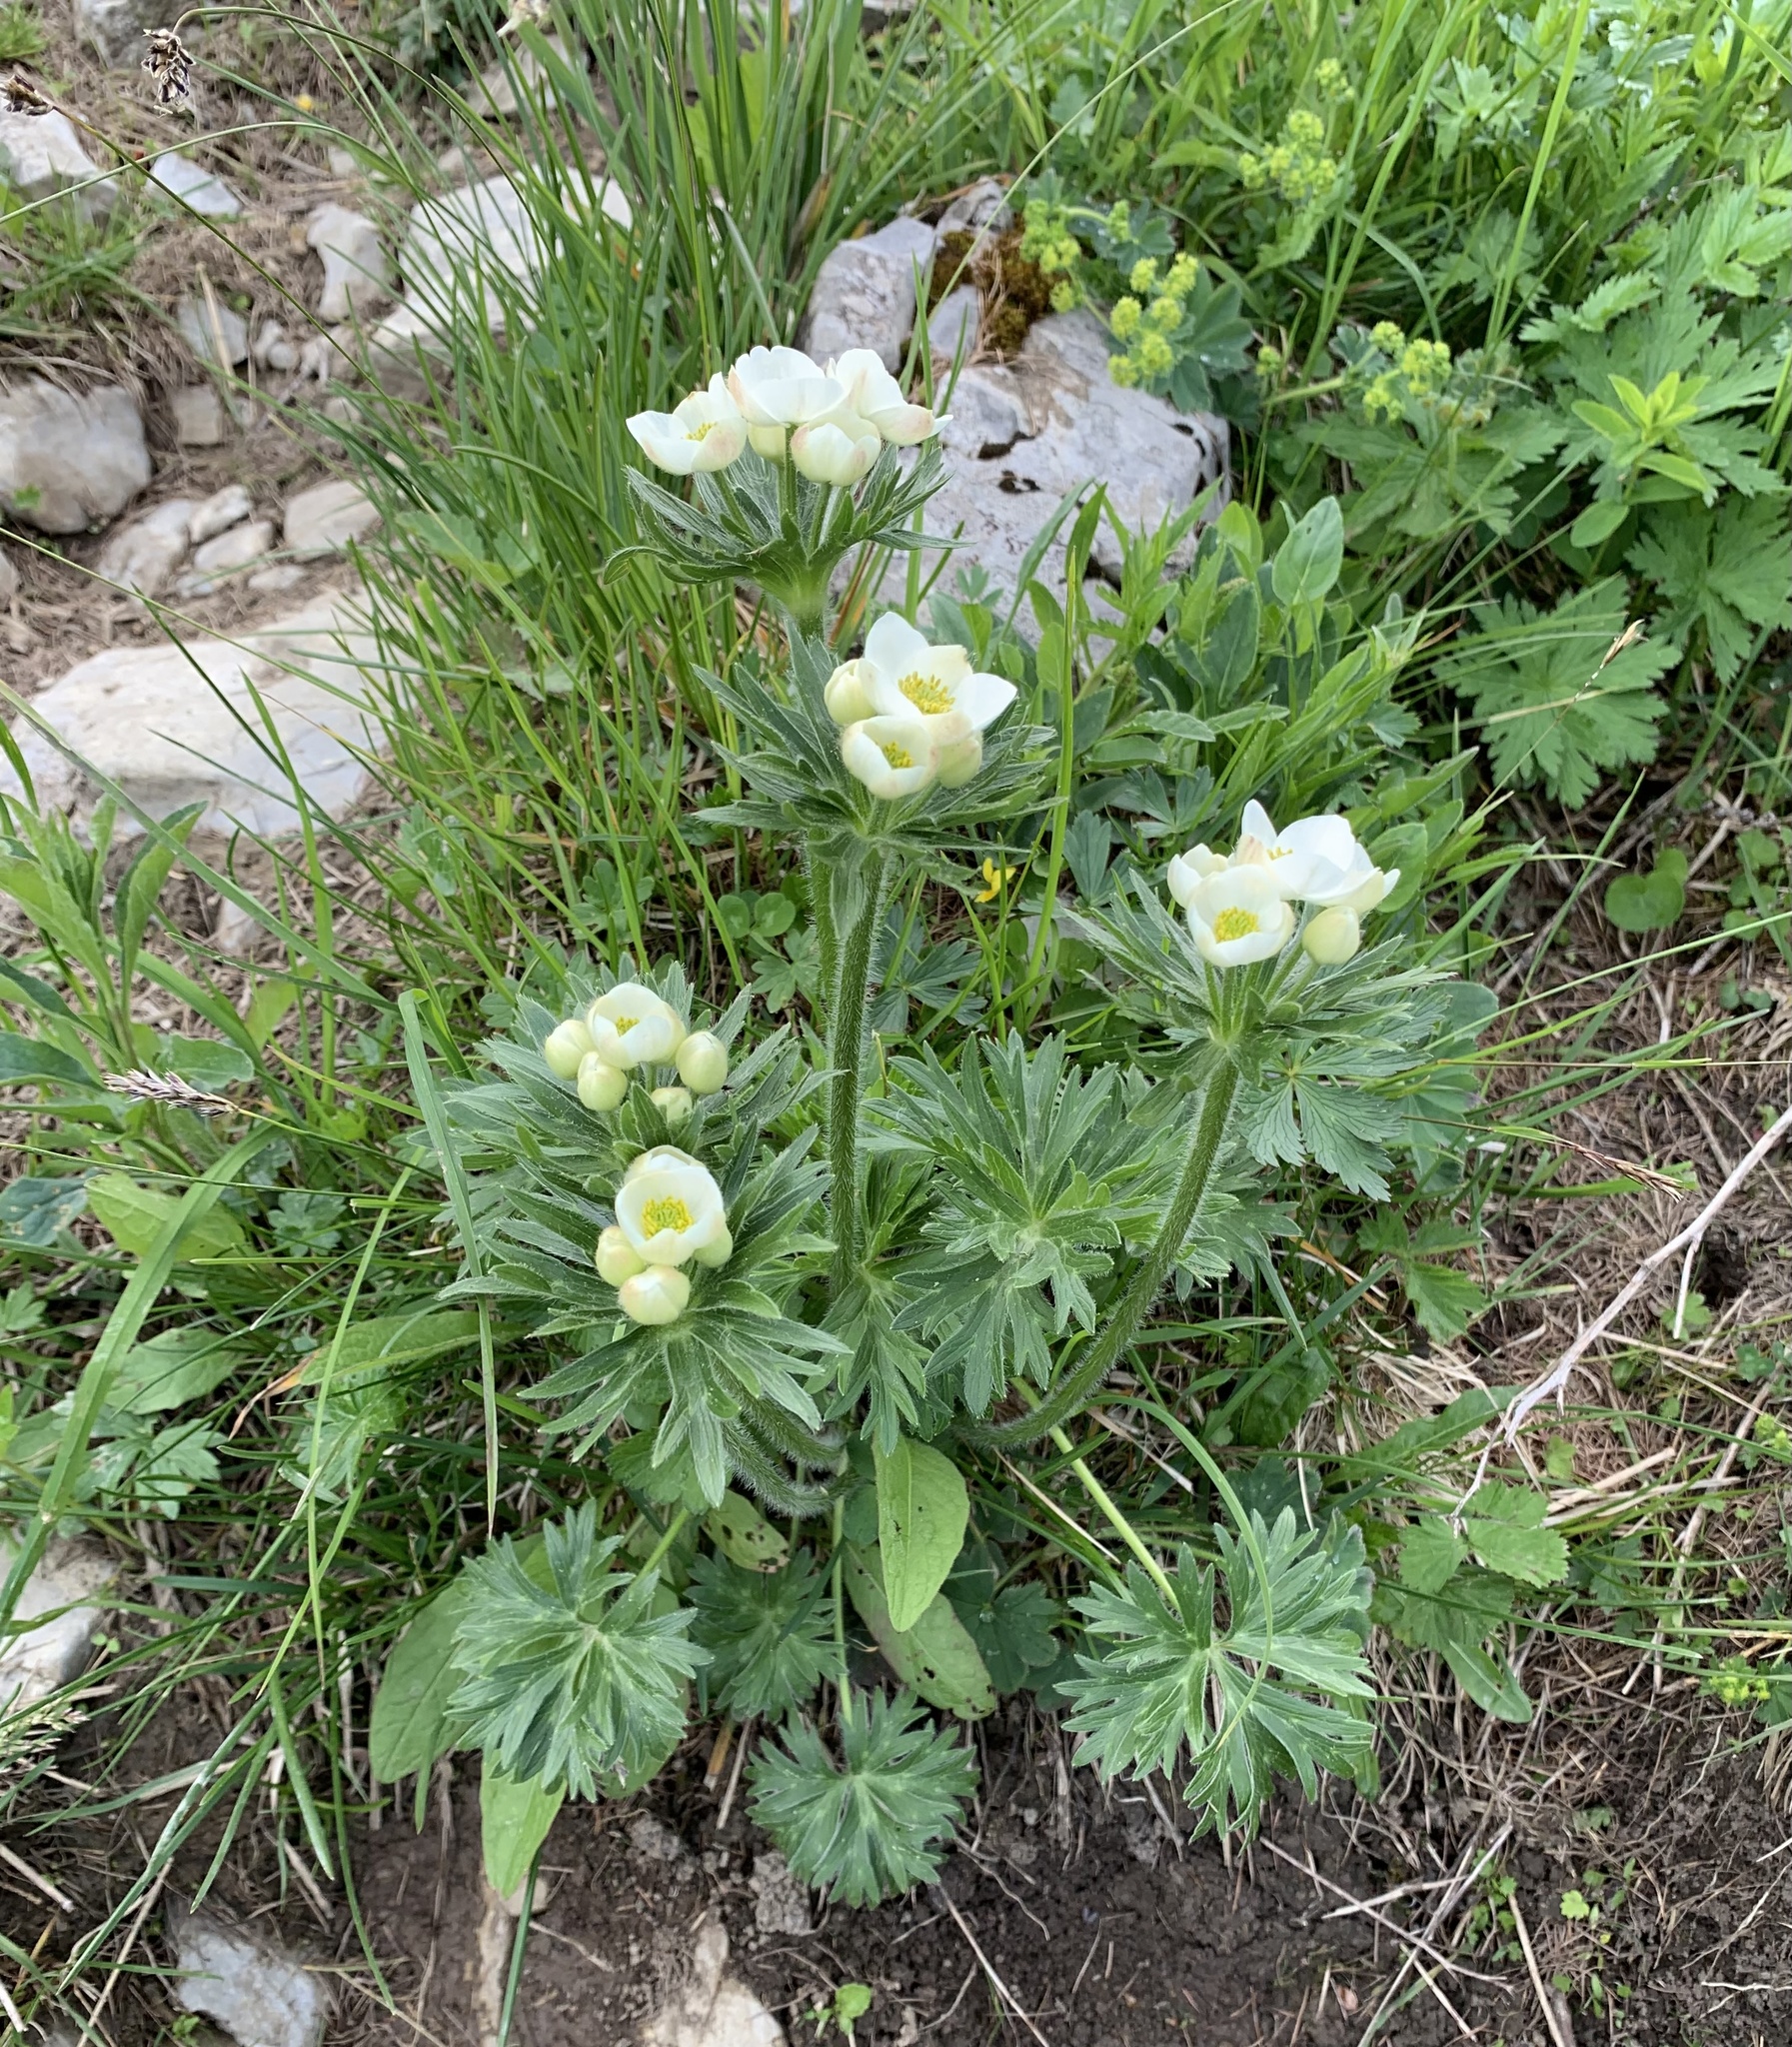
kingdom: Plantae
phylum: Tracheophyta
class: Magnoliopsida
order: Ranunculales
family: Ranunculaceae
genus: Anemonastrum
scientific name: Anemonastrum narcissiflorum
